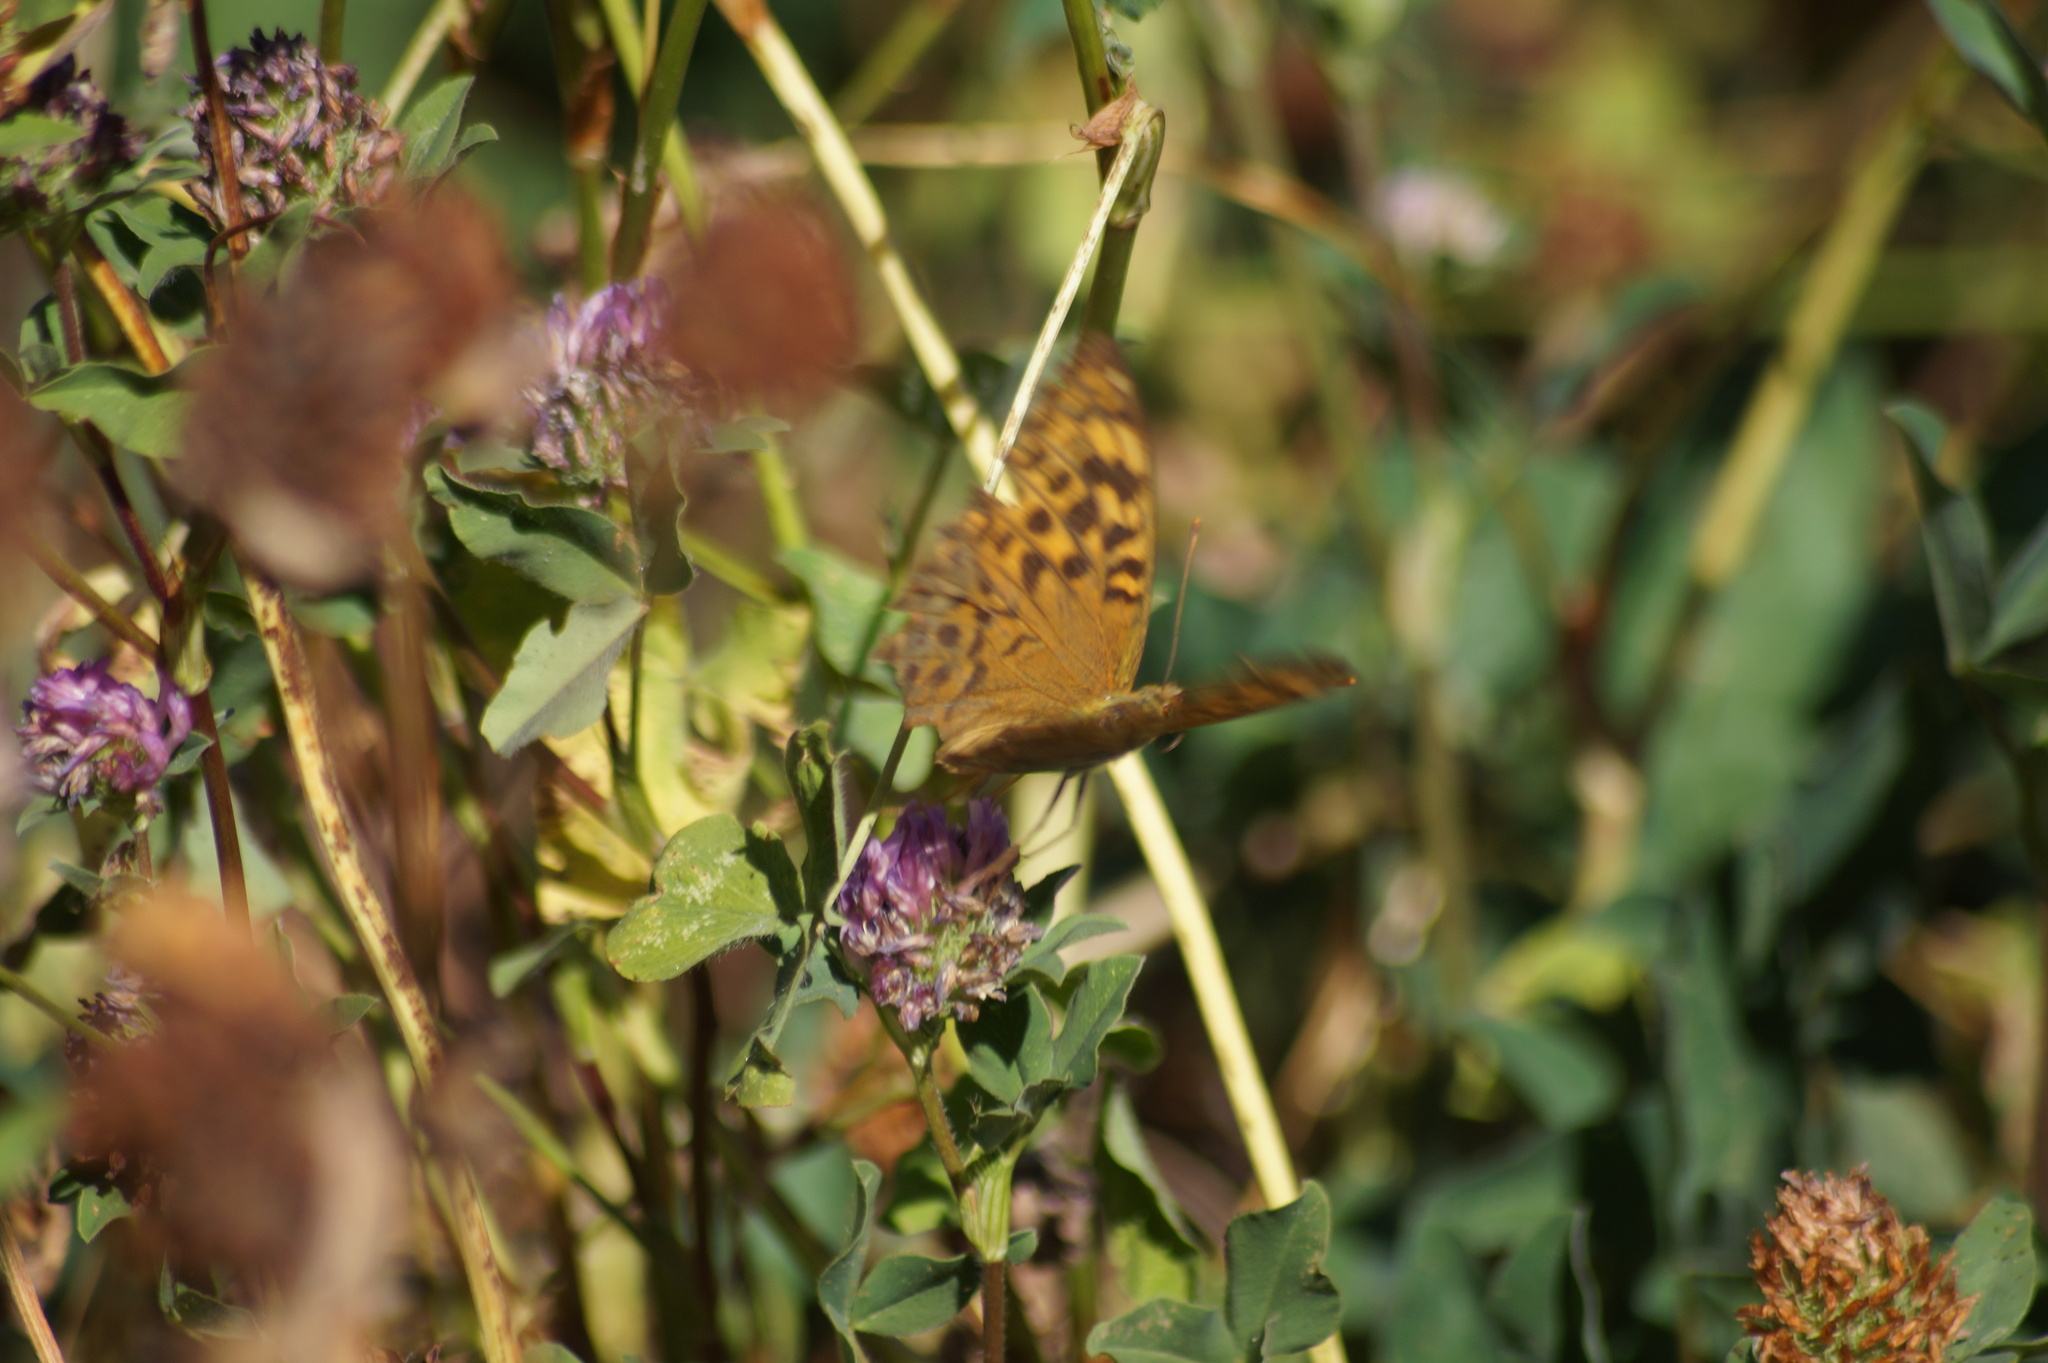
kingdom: Animalia
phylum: Arthropoda
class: Insecta
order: Lepidoptera
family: Nymphalidae
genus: Argynnis
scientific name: Argynnis paphia
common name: Silver-washed fritillary
